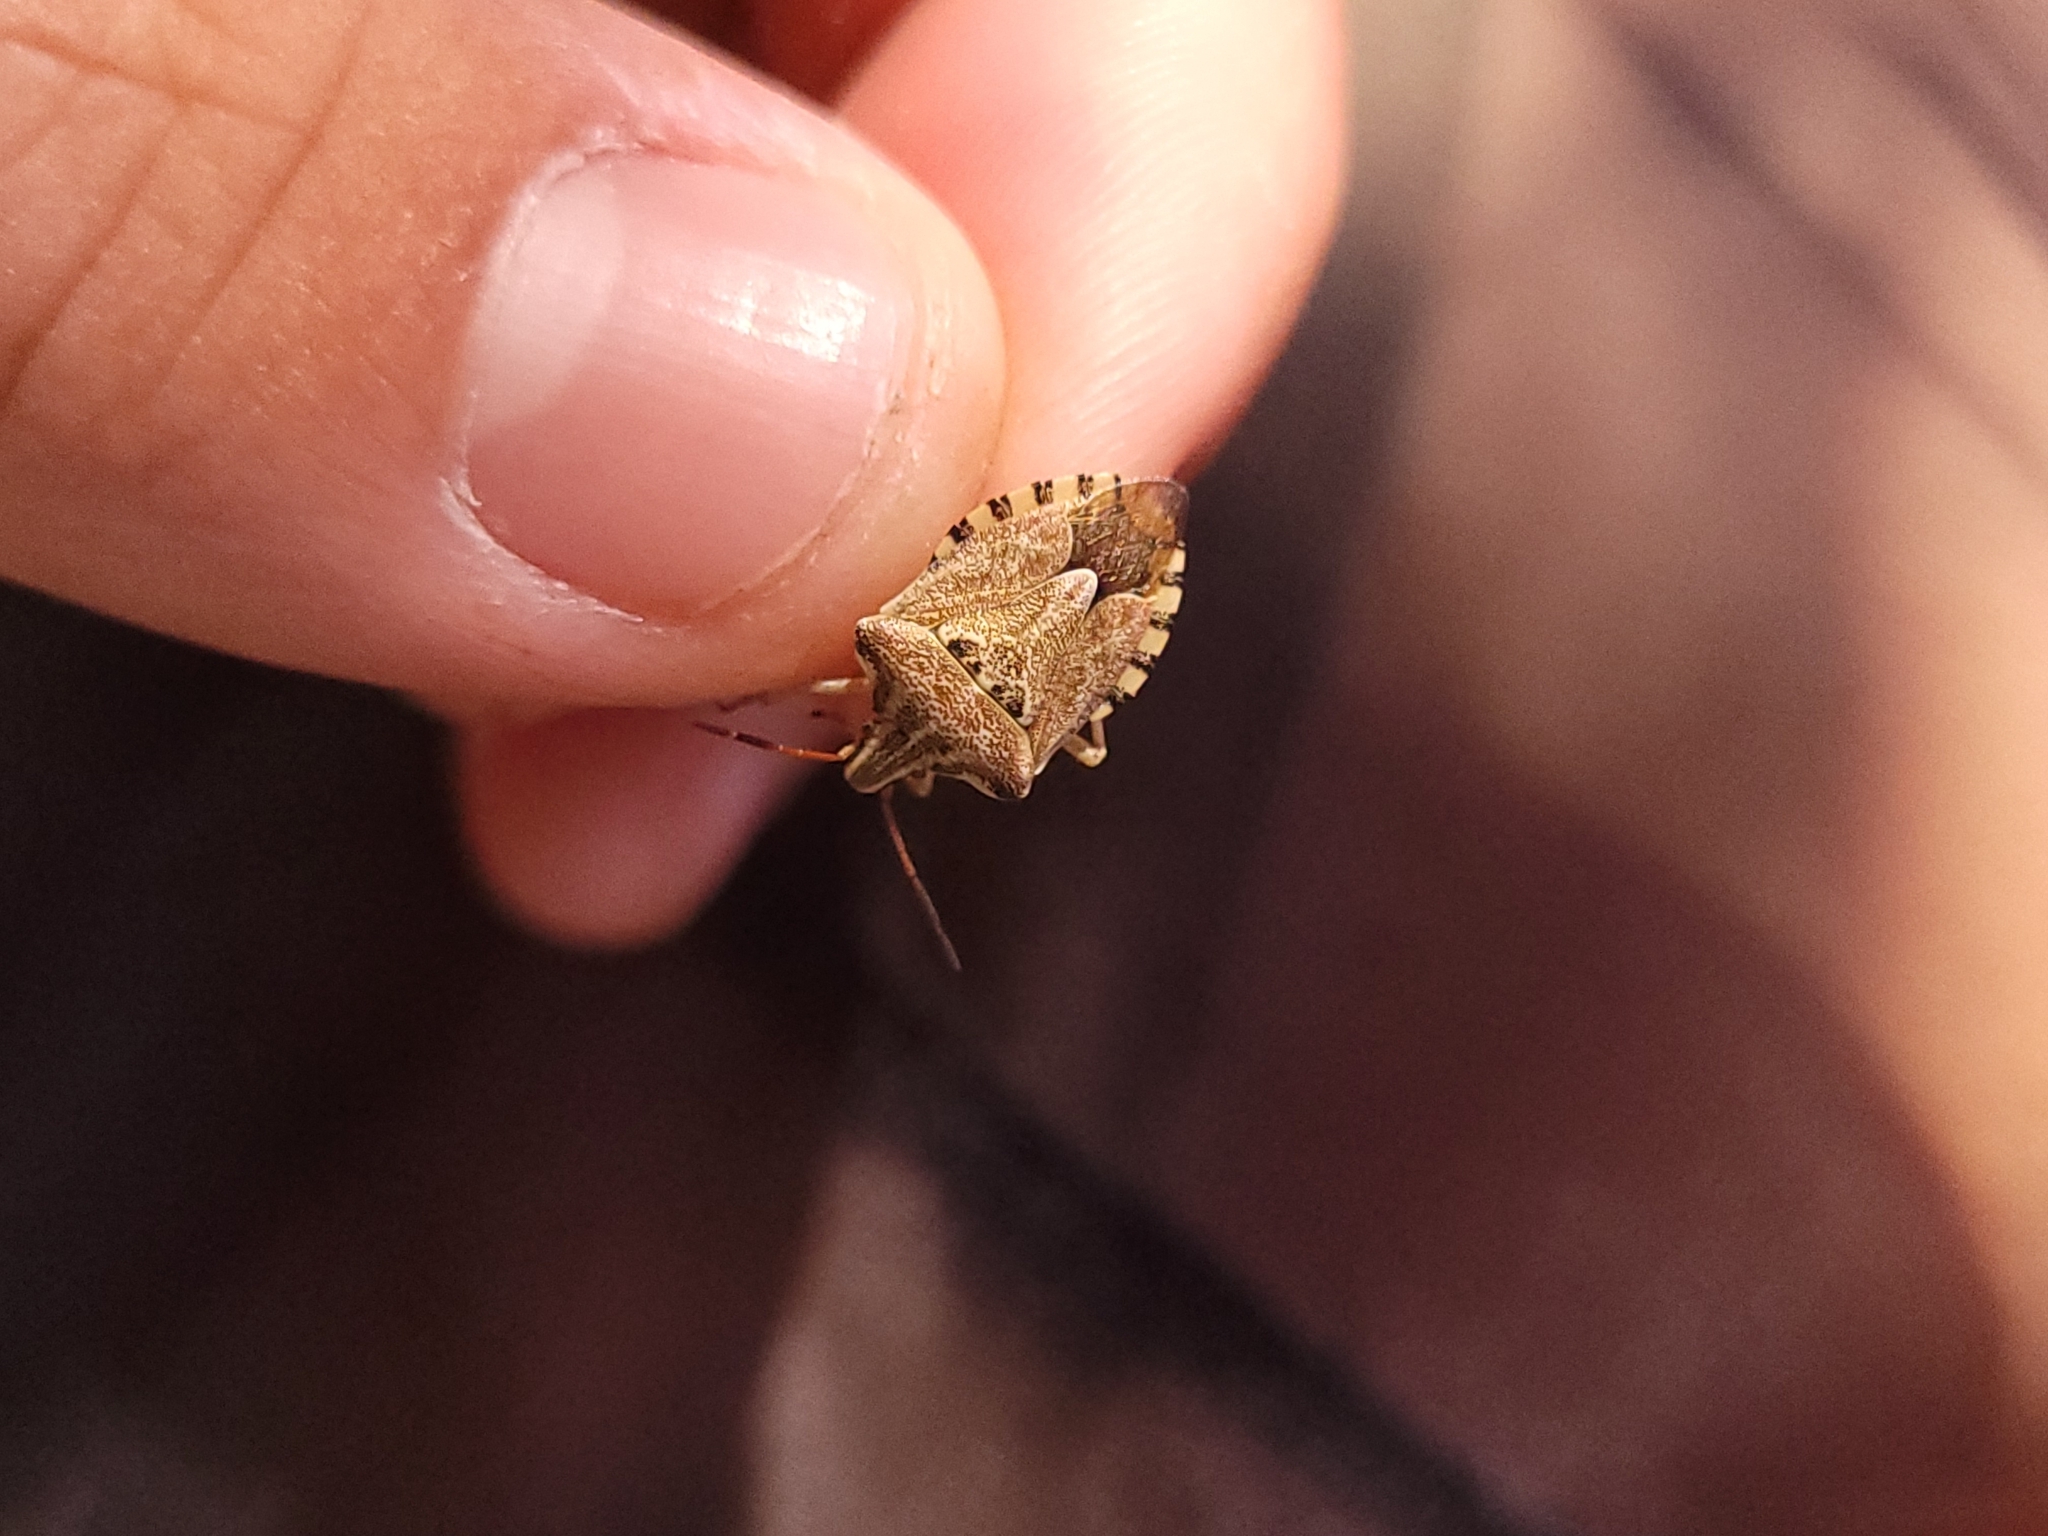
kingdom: Animalia
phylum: Arthropoda
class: Insecta
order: Hemiptera
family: Miridae
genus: Orthops
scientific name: Orthops kalmii
